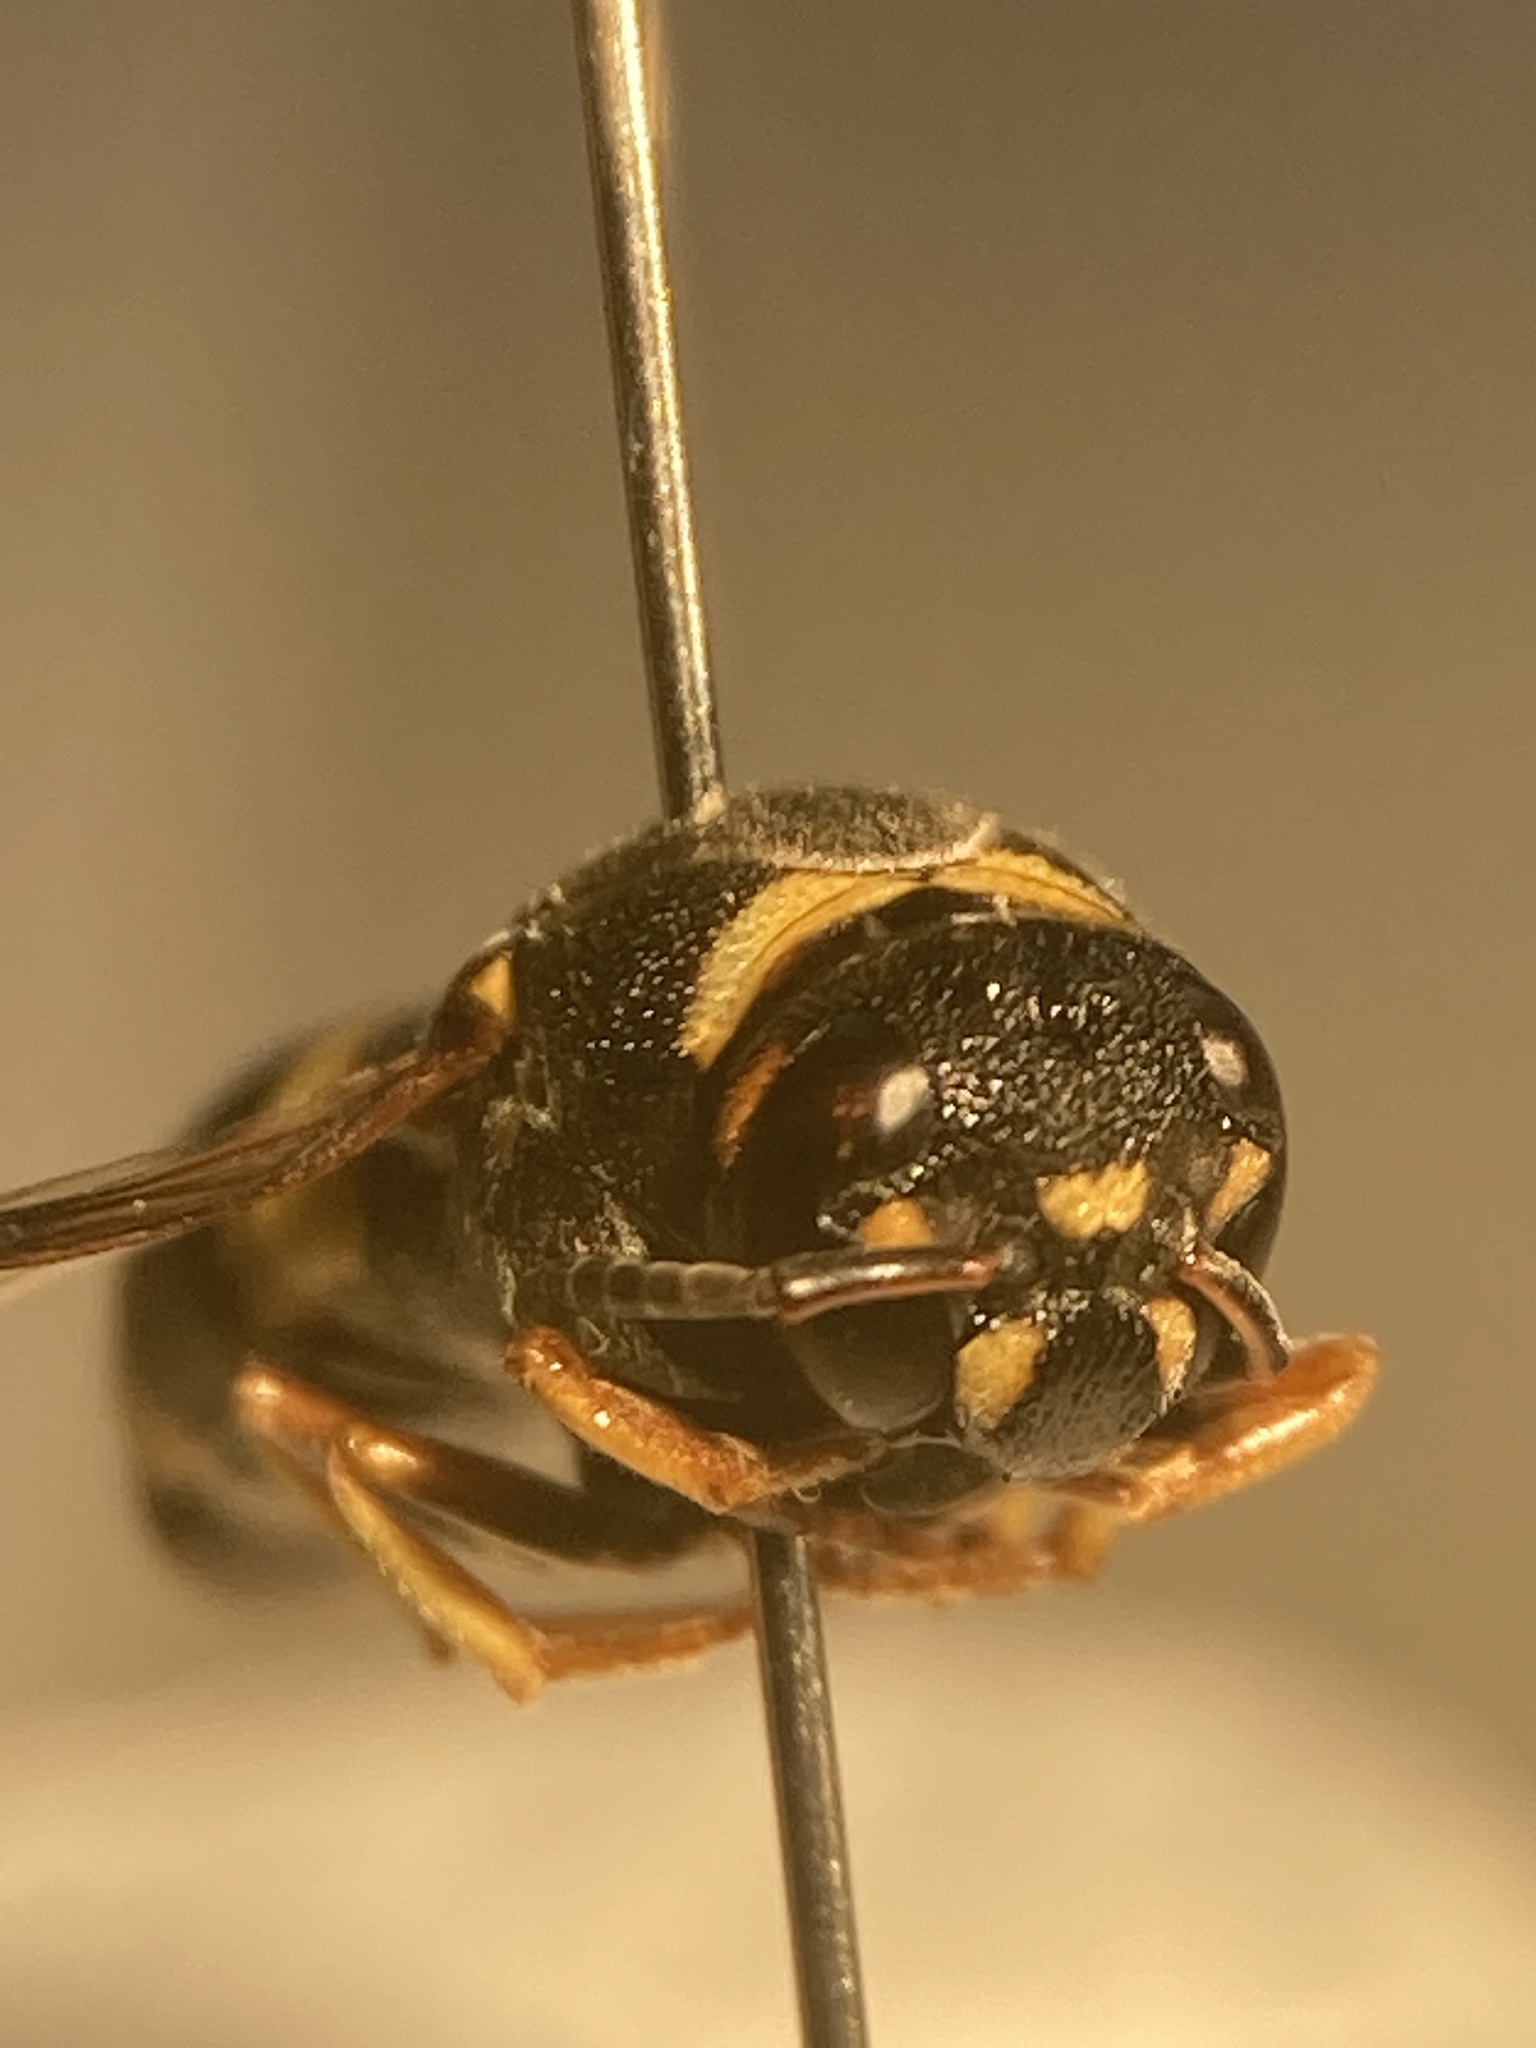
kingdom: Animalia
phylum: Arthropoda
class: Insecta
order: Hymenoptera
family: Eumenidae
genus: Euodynerus
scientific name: Euodynerus hidalgo
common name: Wasp
